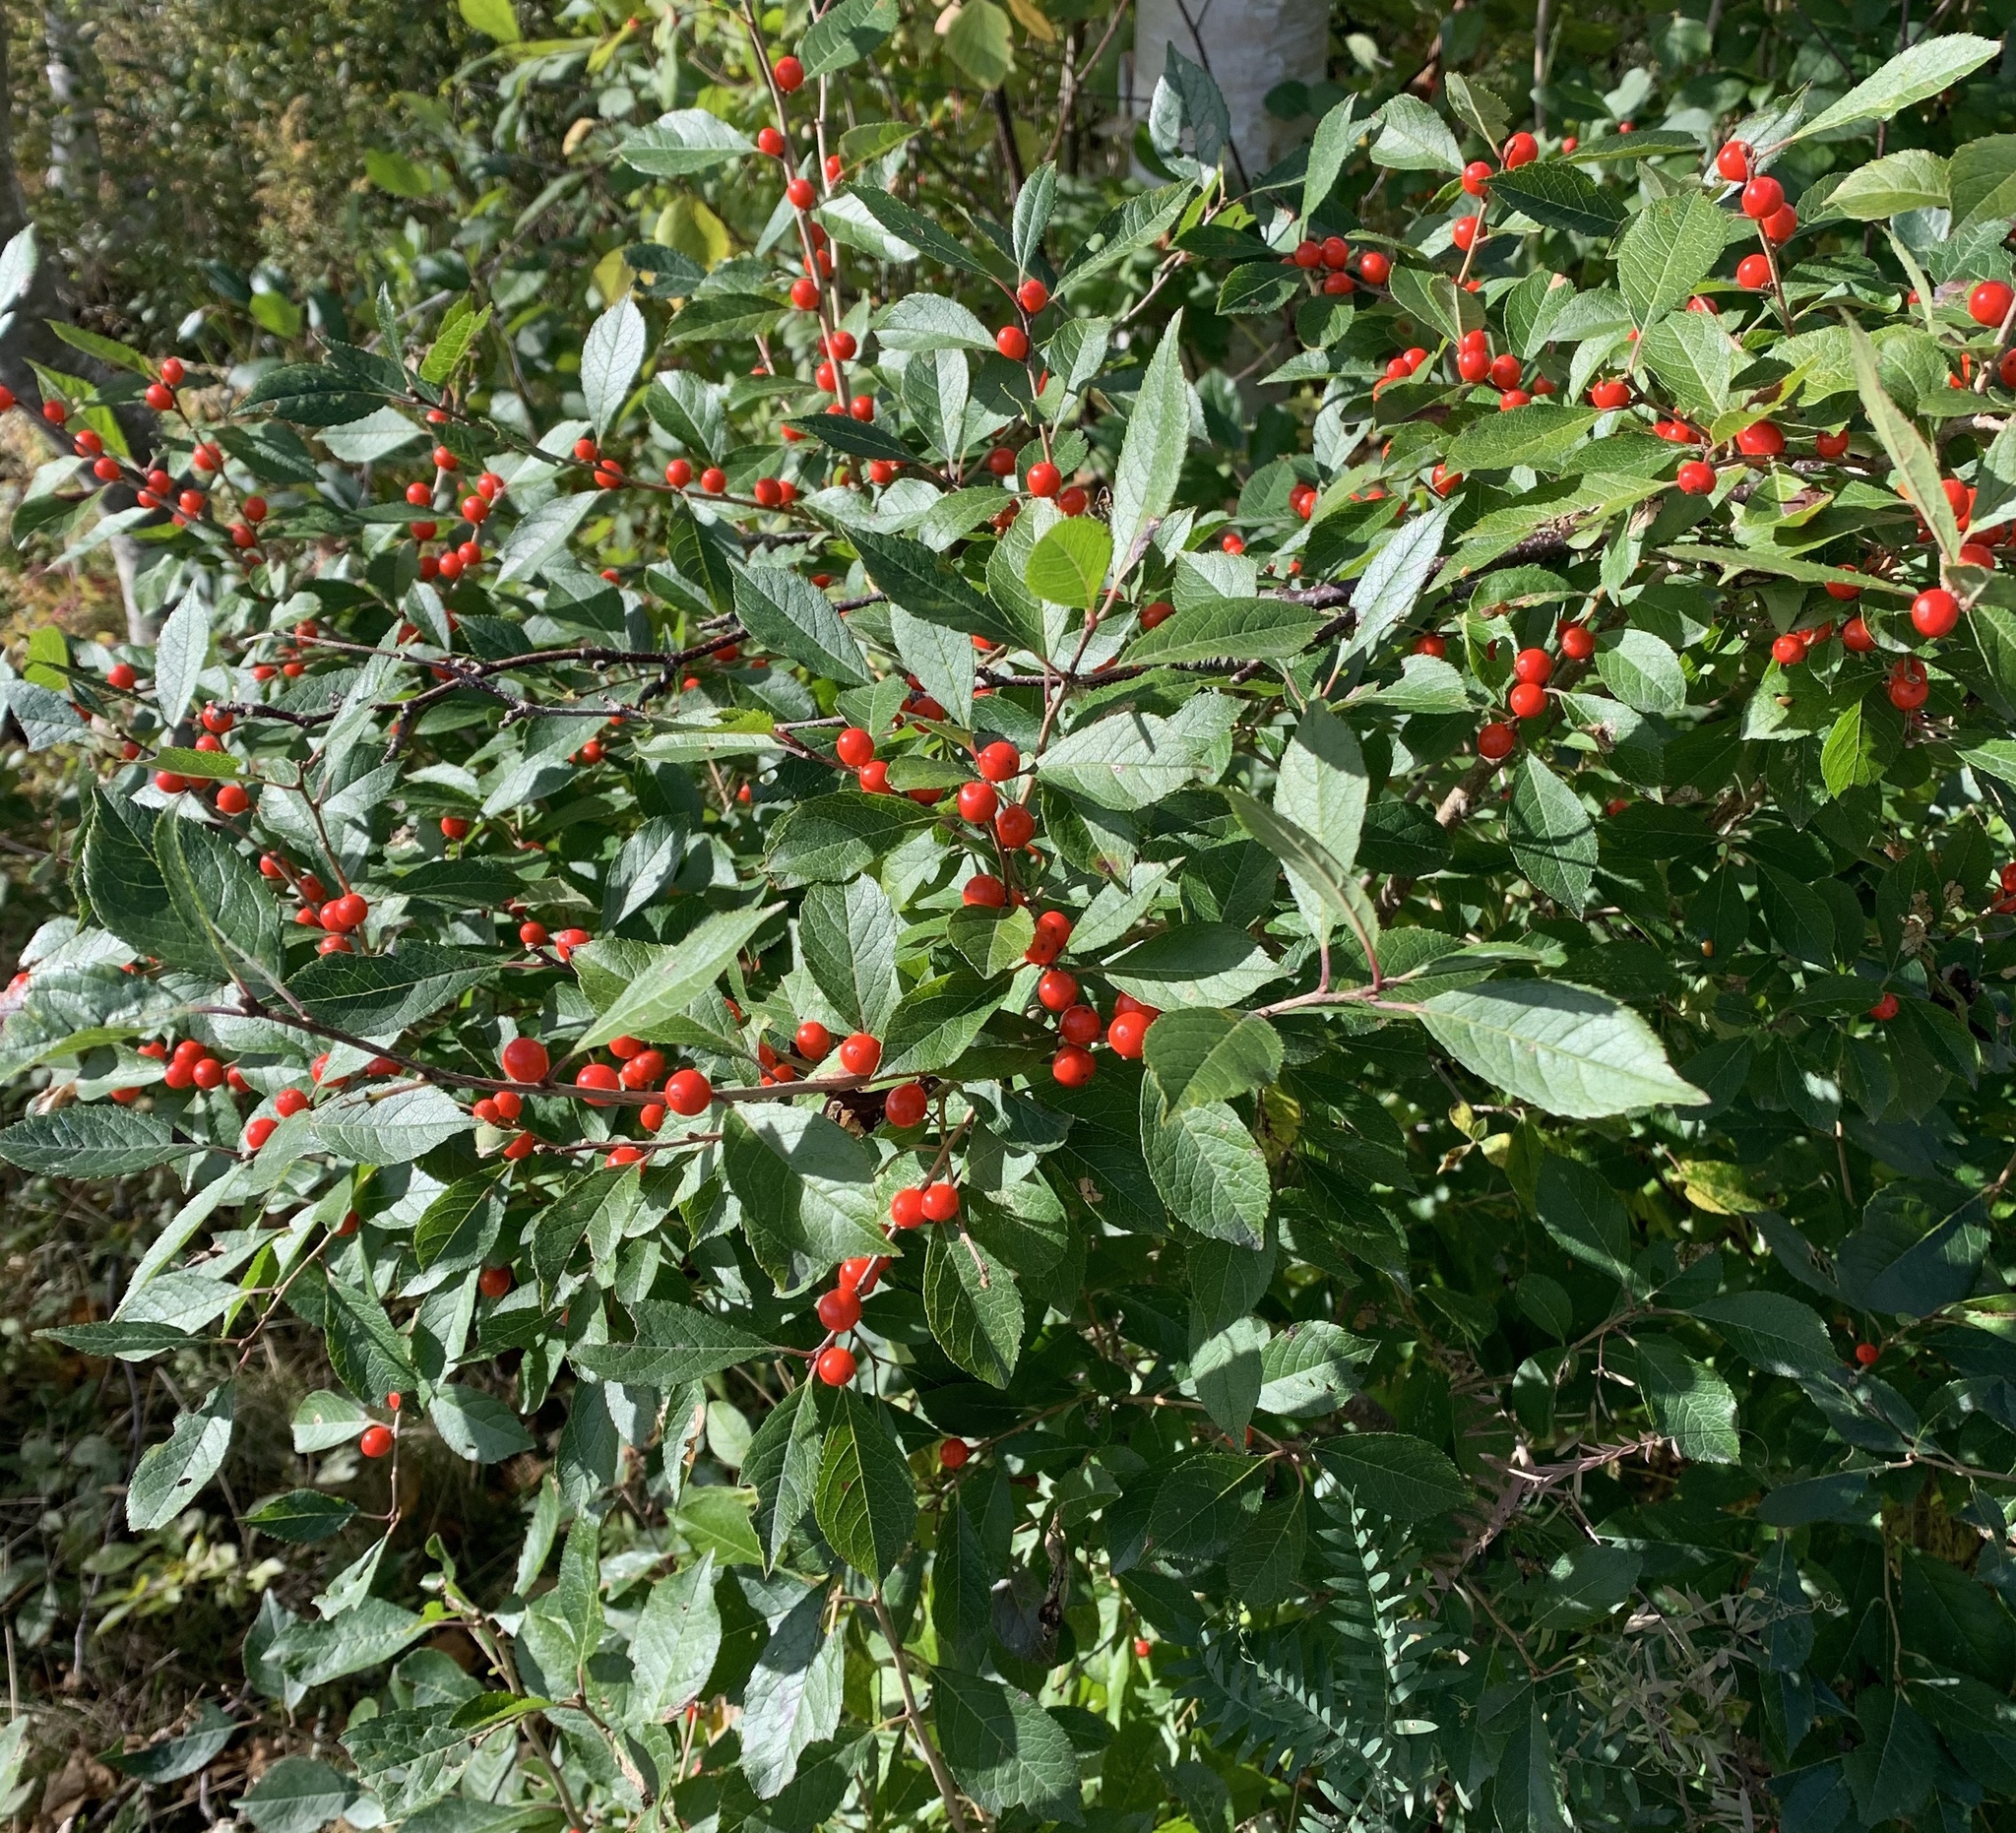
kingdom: Plantae
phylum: Tracheophyta
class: Magnoliopsida
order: Aquifoliales
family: Aquifoliaceae
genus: Ilex
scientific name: Ilex verticillata
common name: Virginia winterberry
